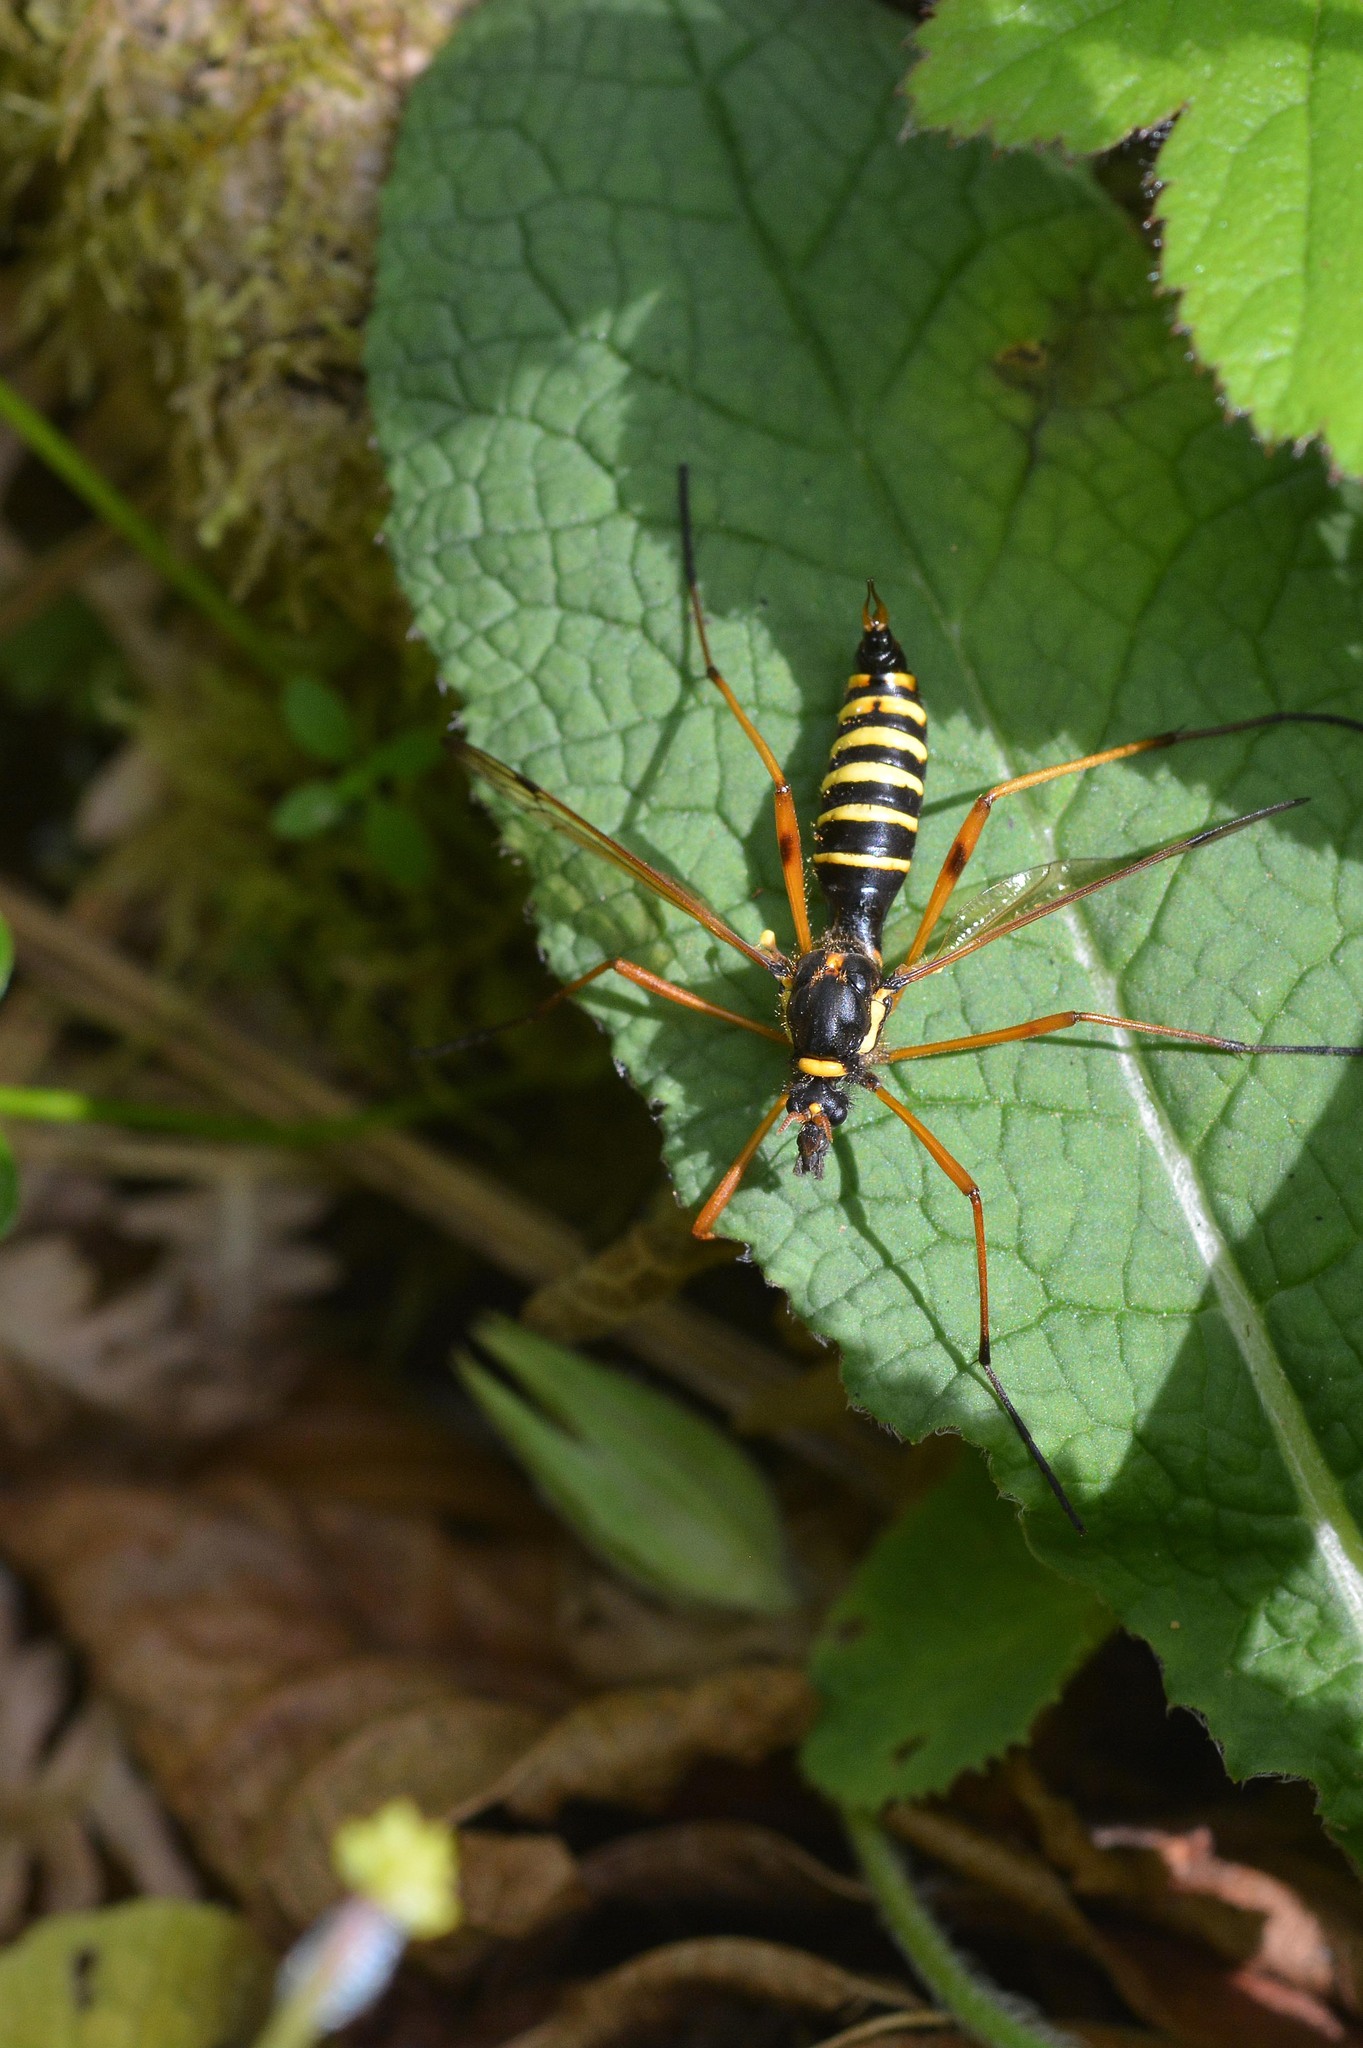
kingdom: Animalia
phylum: Arthropoda
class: Insecta
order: Diptera
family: Tipulidae
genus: Ctenophora
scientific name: Ctenophora flaveolata
